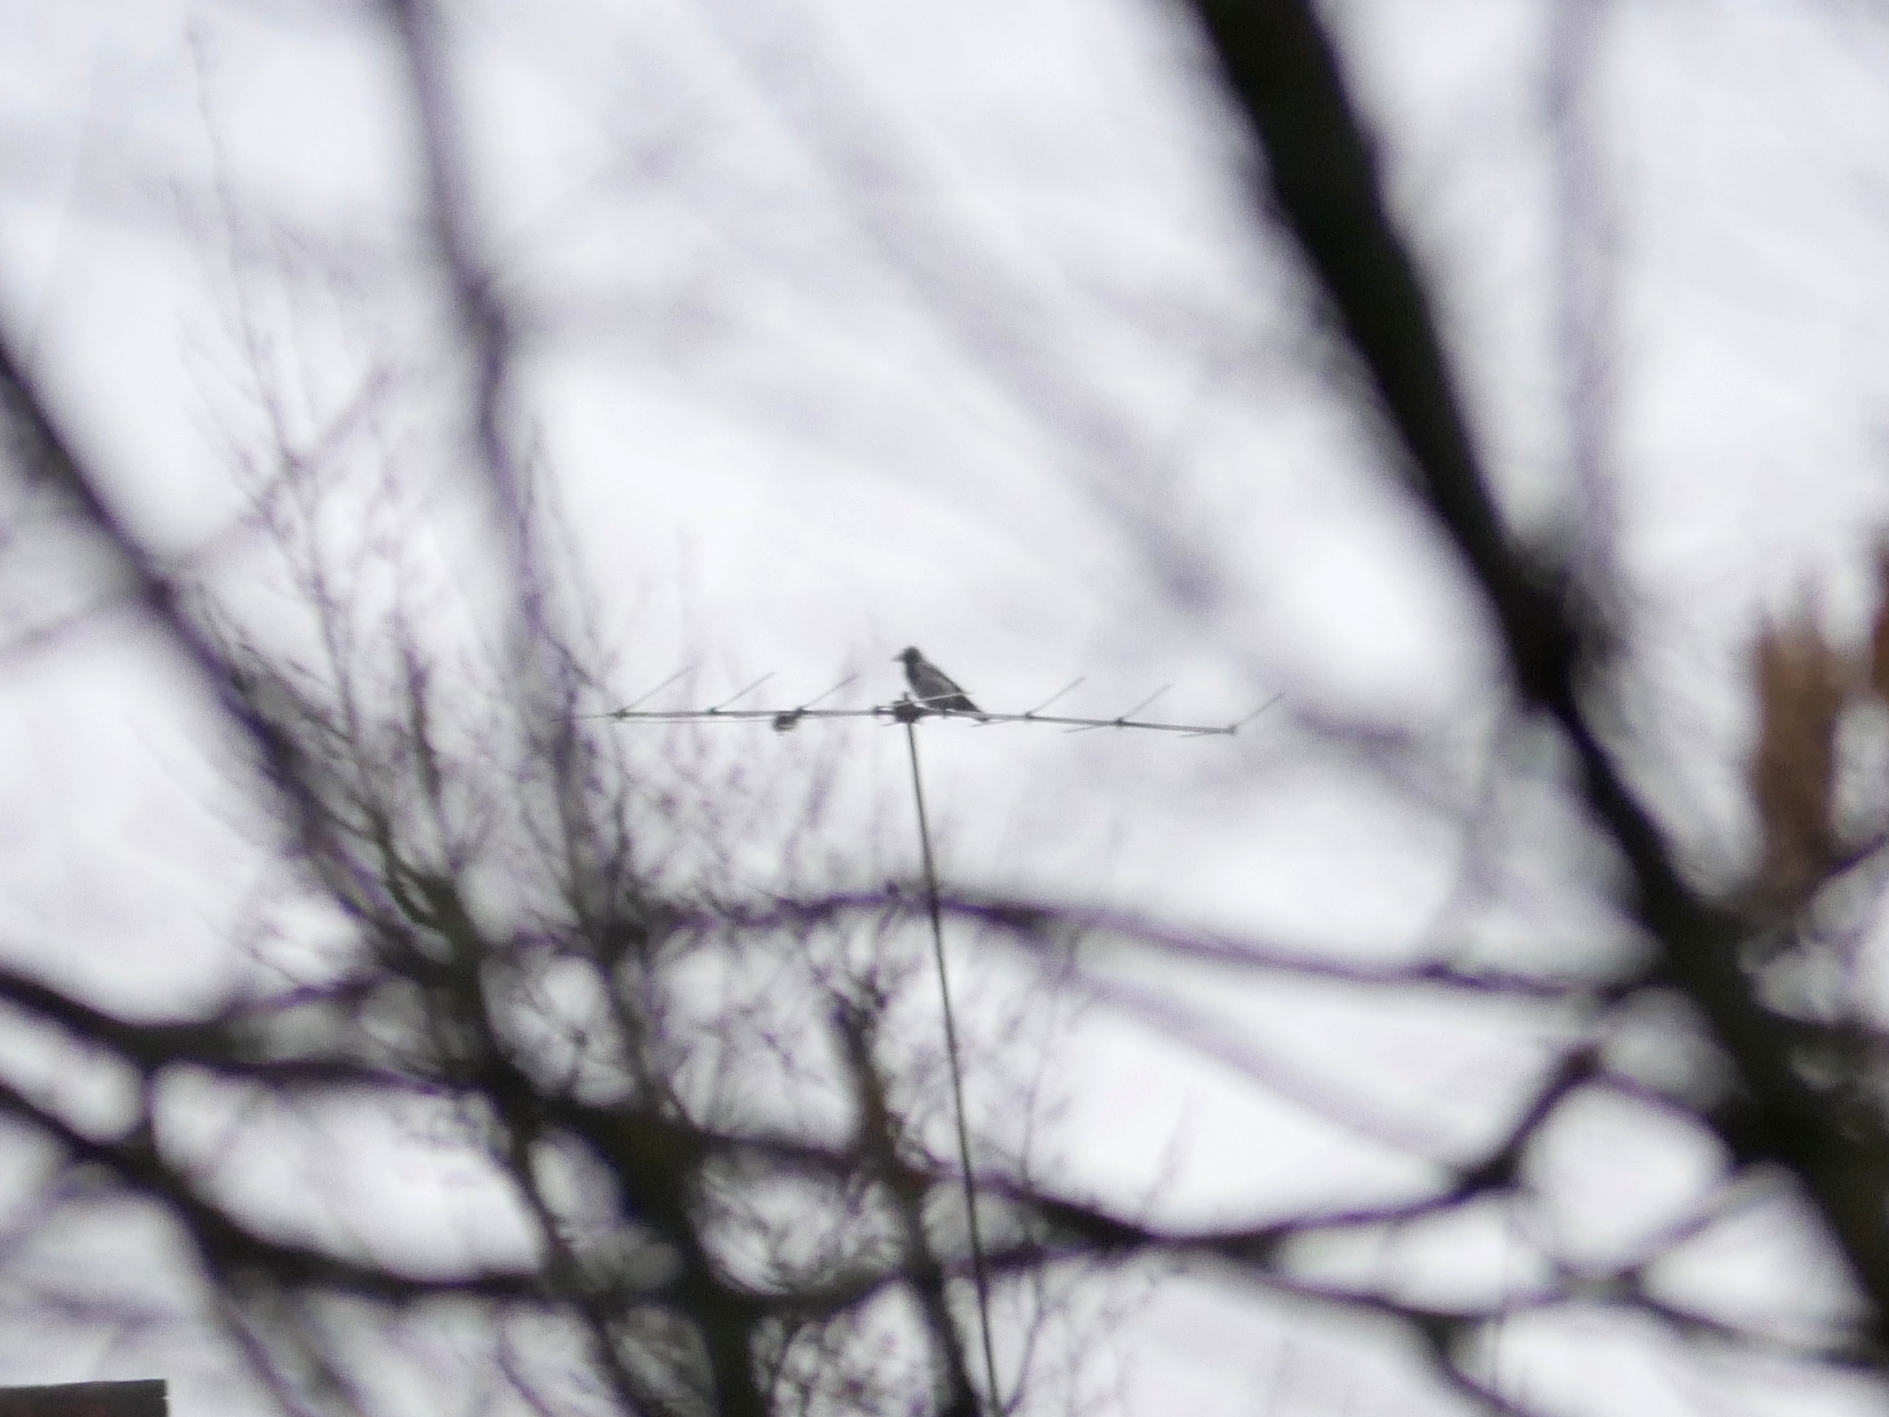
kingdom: Animalia
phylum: Chordata
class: Aves
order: Passeriformes
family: Corvidae
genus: Corvus
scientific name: Corvus cornix
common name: Hooded crow
